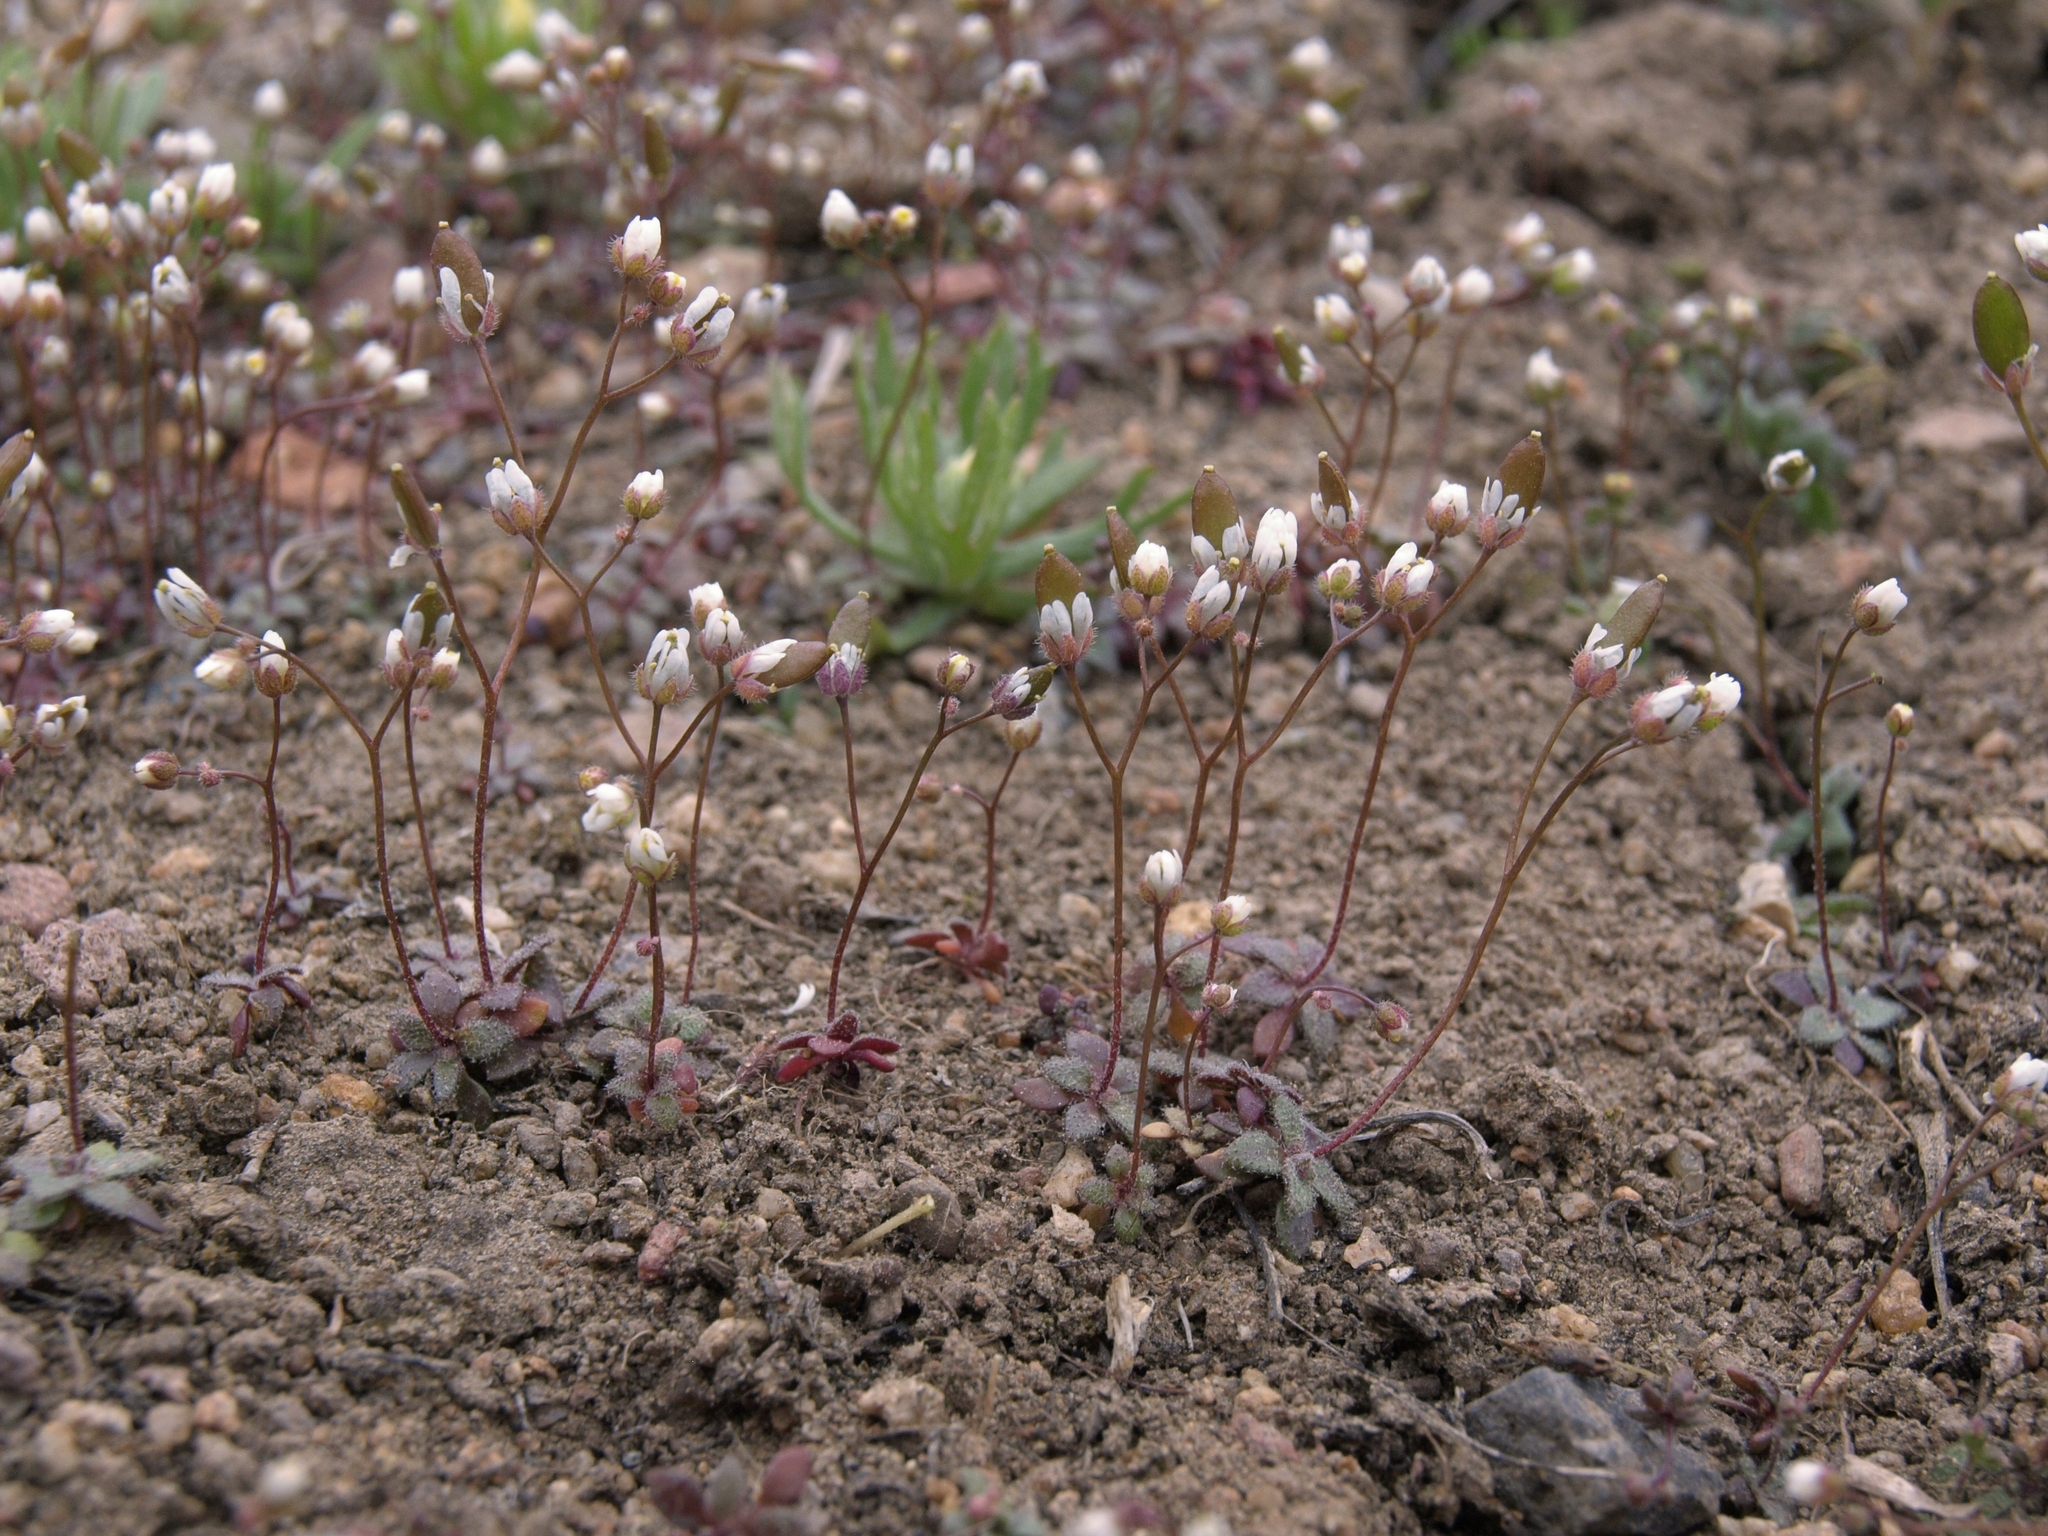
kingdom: Plantae
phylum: Tracheophyta
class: Magnoliopsida
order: Brassicales
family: Brassicaceae
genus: Draba
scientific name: Draba verna
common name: Spring draba
